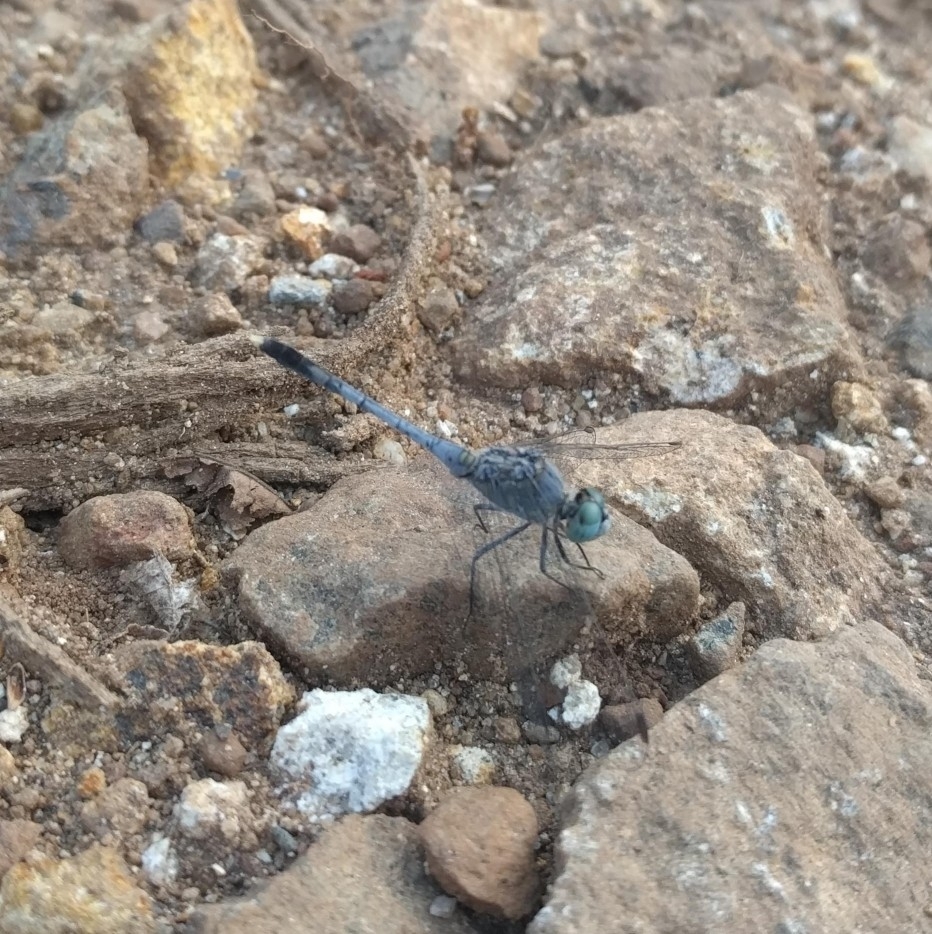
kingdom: Animalia
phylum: Arthropoda
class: Insecta
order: Odonata
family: Libellulidae
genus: Diplacodes
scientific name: Diplacodes trivialis
